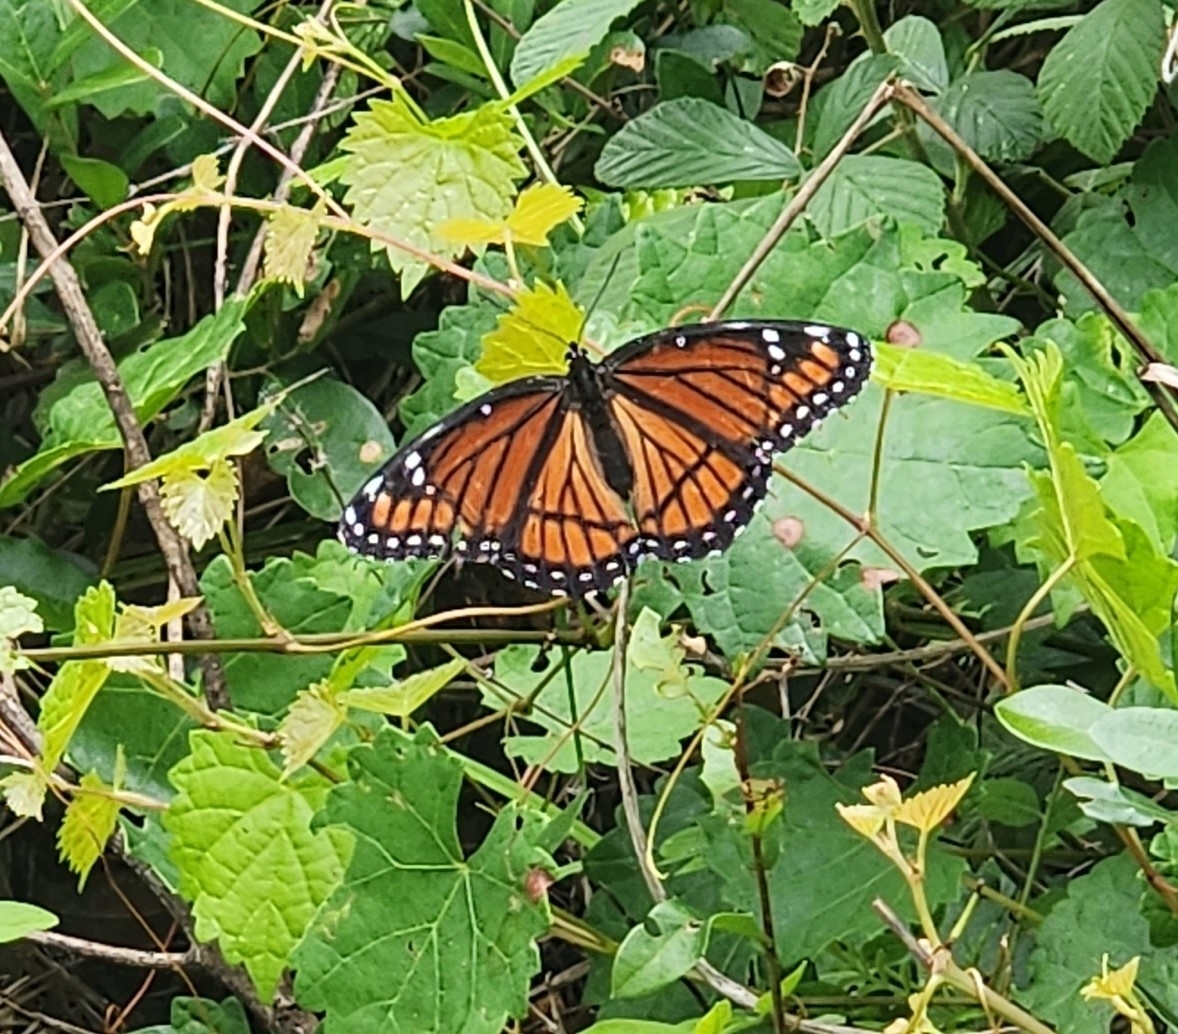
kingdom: Animalia
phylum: Arthropoda
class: Insecta
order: Lepidoptera
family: Nymphalidae
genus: Limenitis
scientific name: Limenitis archippus
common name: Viceroy
